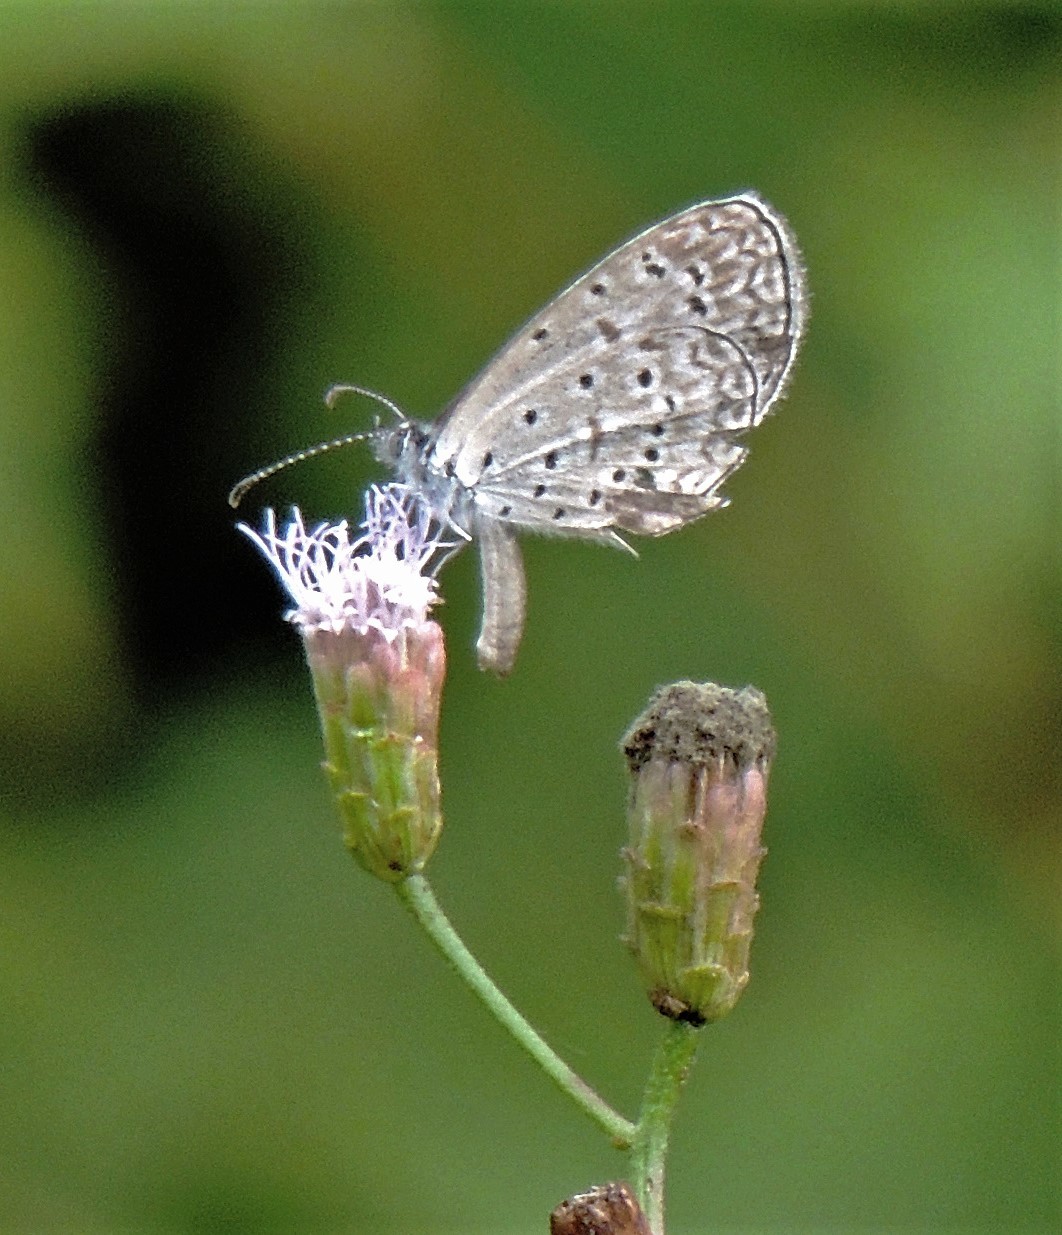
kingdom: Animalia
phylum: Arthropoda
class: Insecta
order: Lepidoptera
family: Lycaenidae
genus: Lycaena
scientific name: Lycaena cyna
